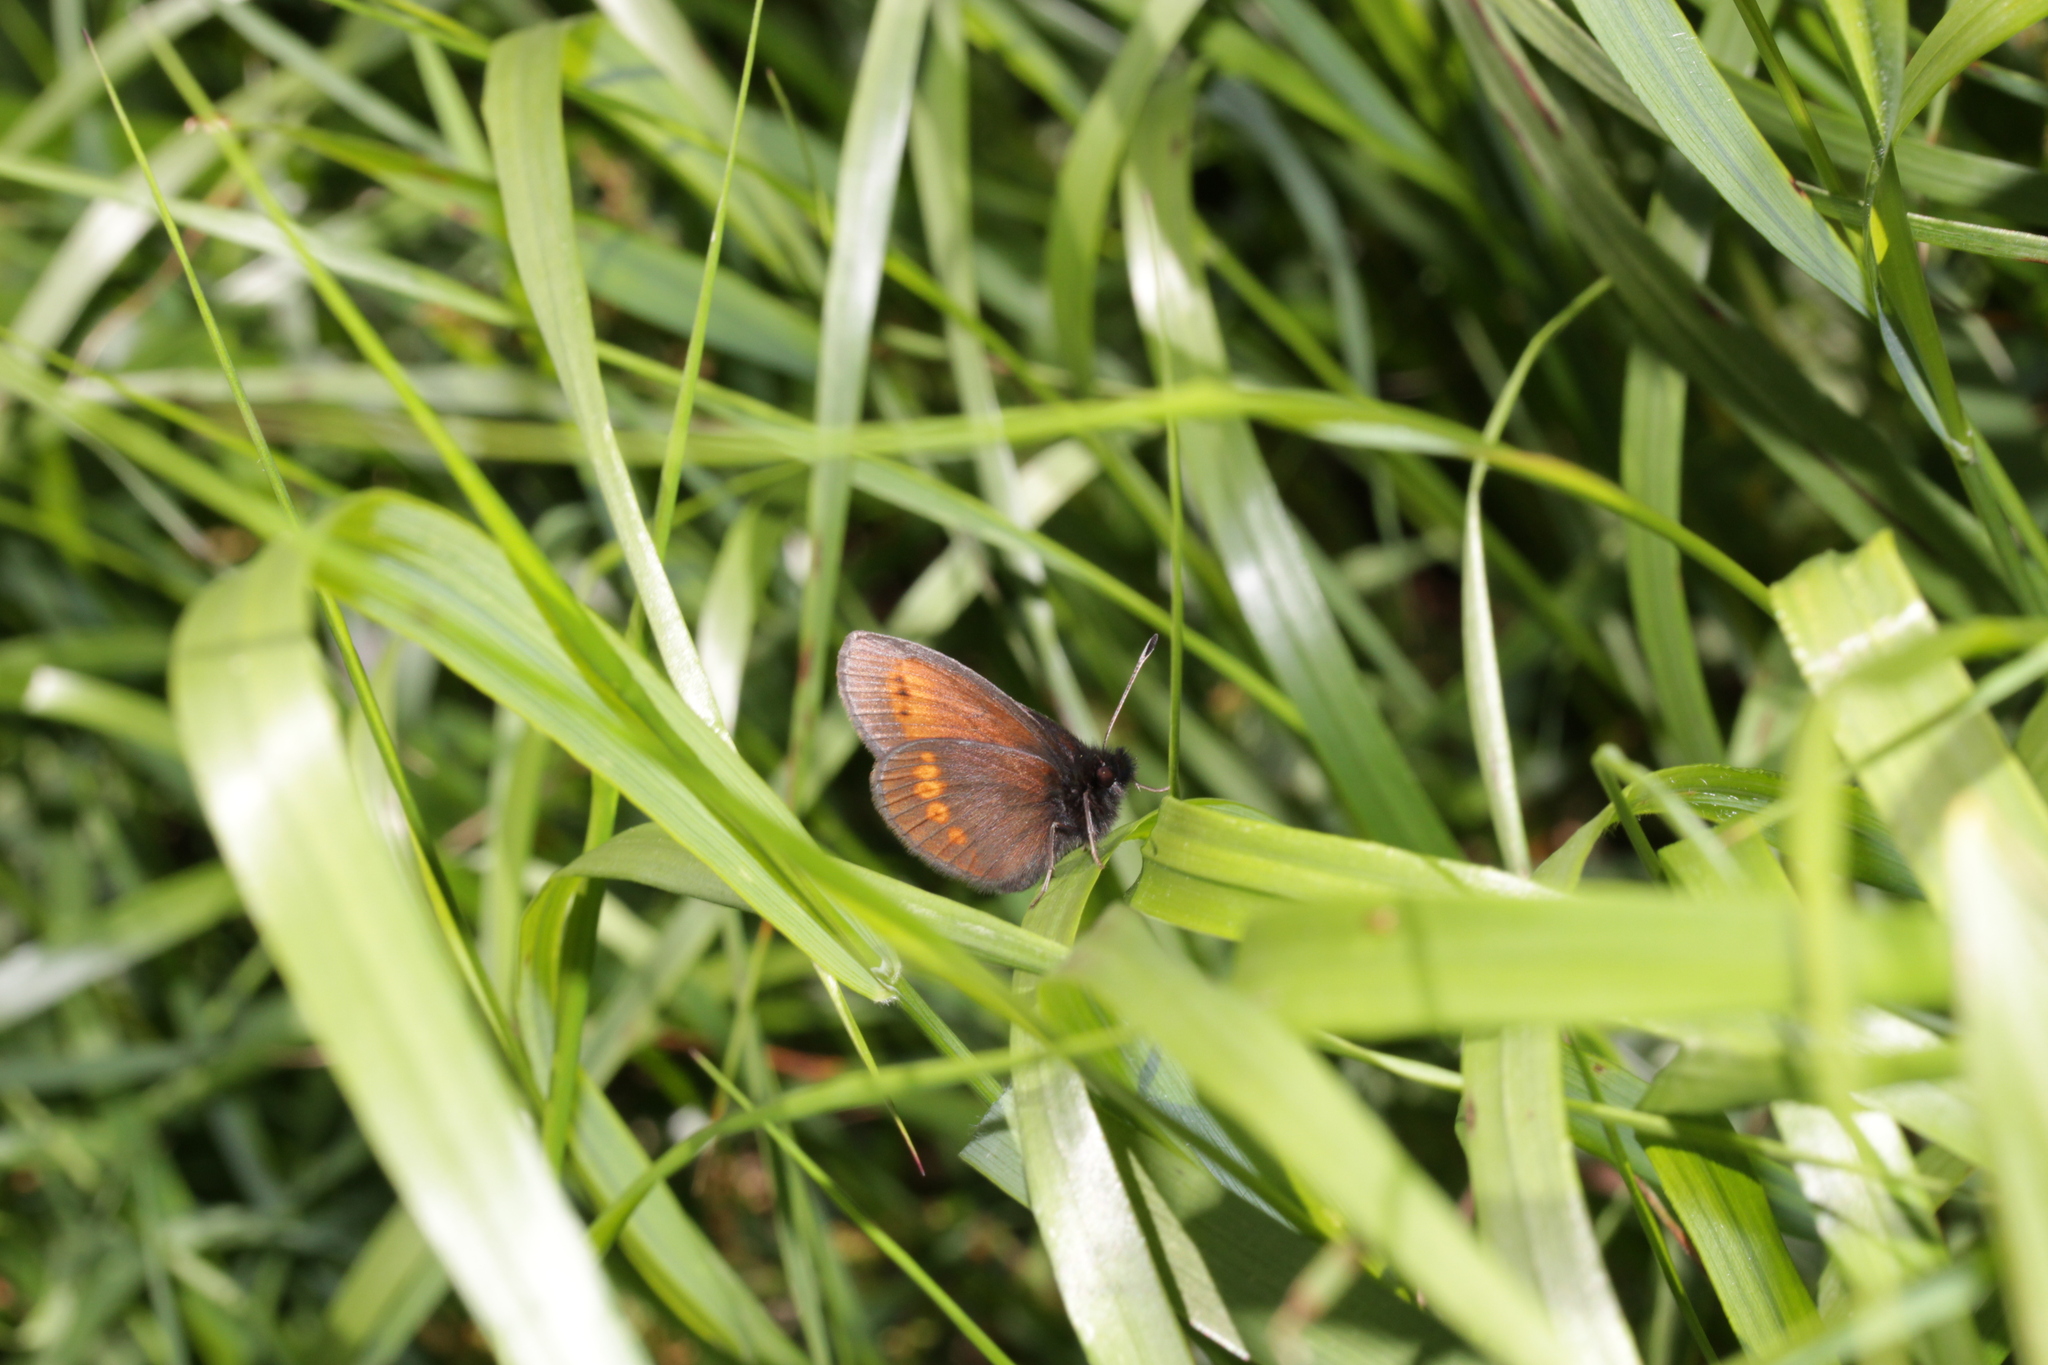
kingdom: Animalia
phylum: Arthropoda
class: Insecta
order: Lepidoptera
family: Nymphalidae
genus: Erebia
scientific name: Erebia melampus
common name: Lesser mountain ringlet
